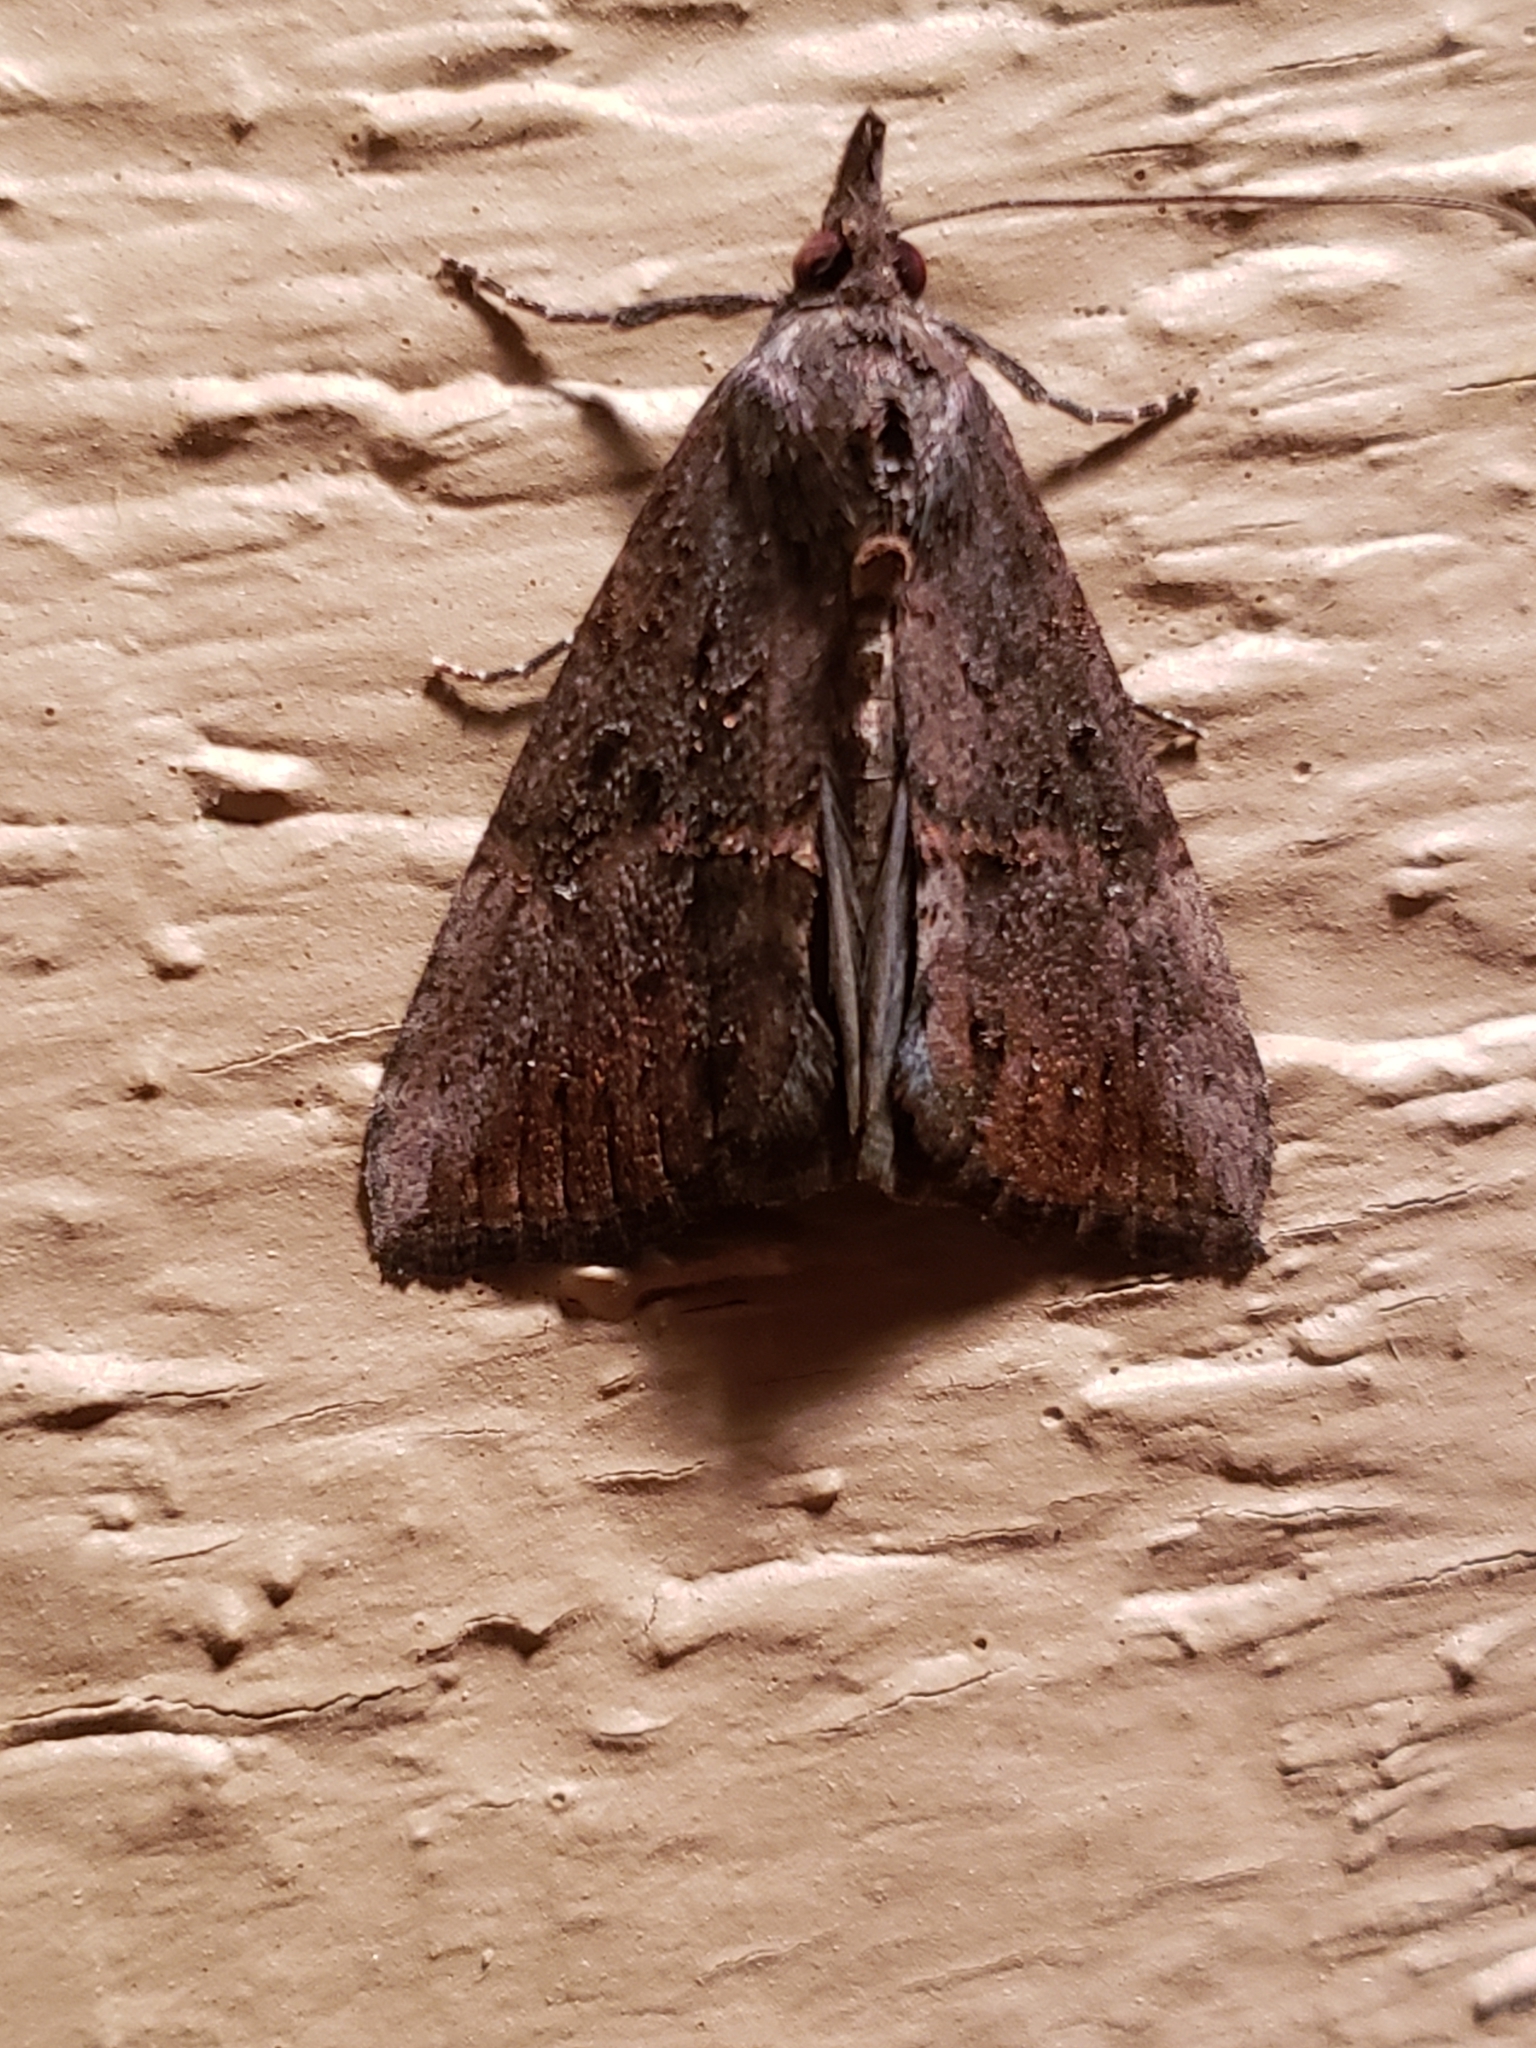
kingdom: Animalia
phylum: Arthropoda
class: Insecta
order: Lepidoptera
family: Erebidae
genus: Hypena
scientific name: Hypena scabra
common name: Green cloverworm
